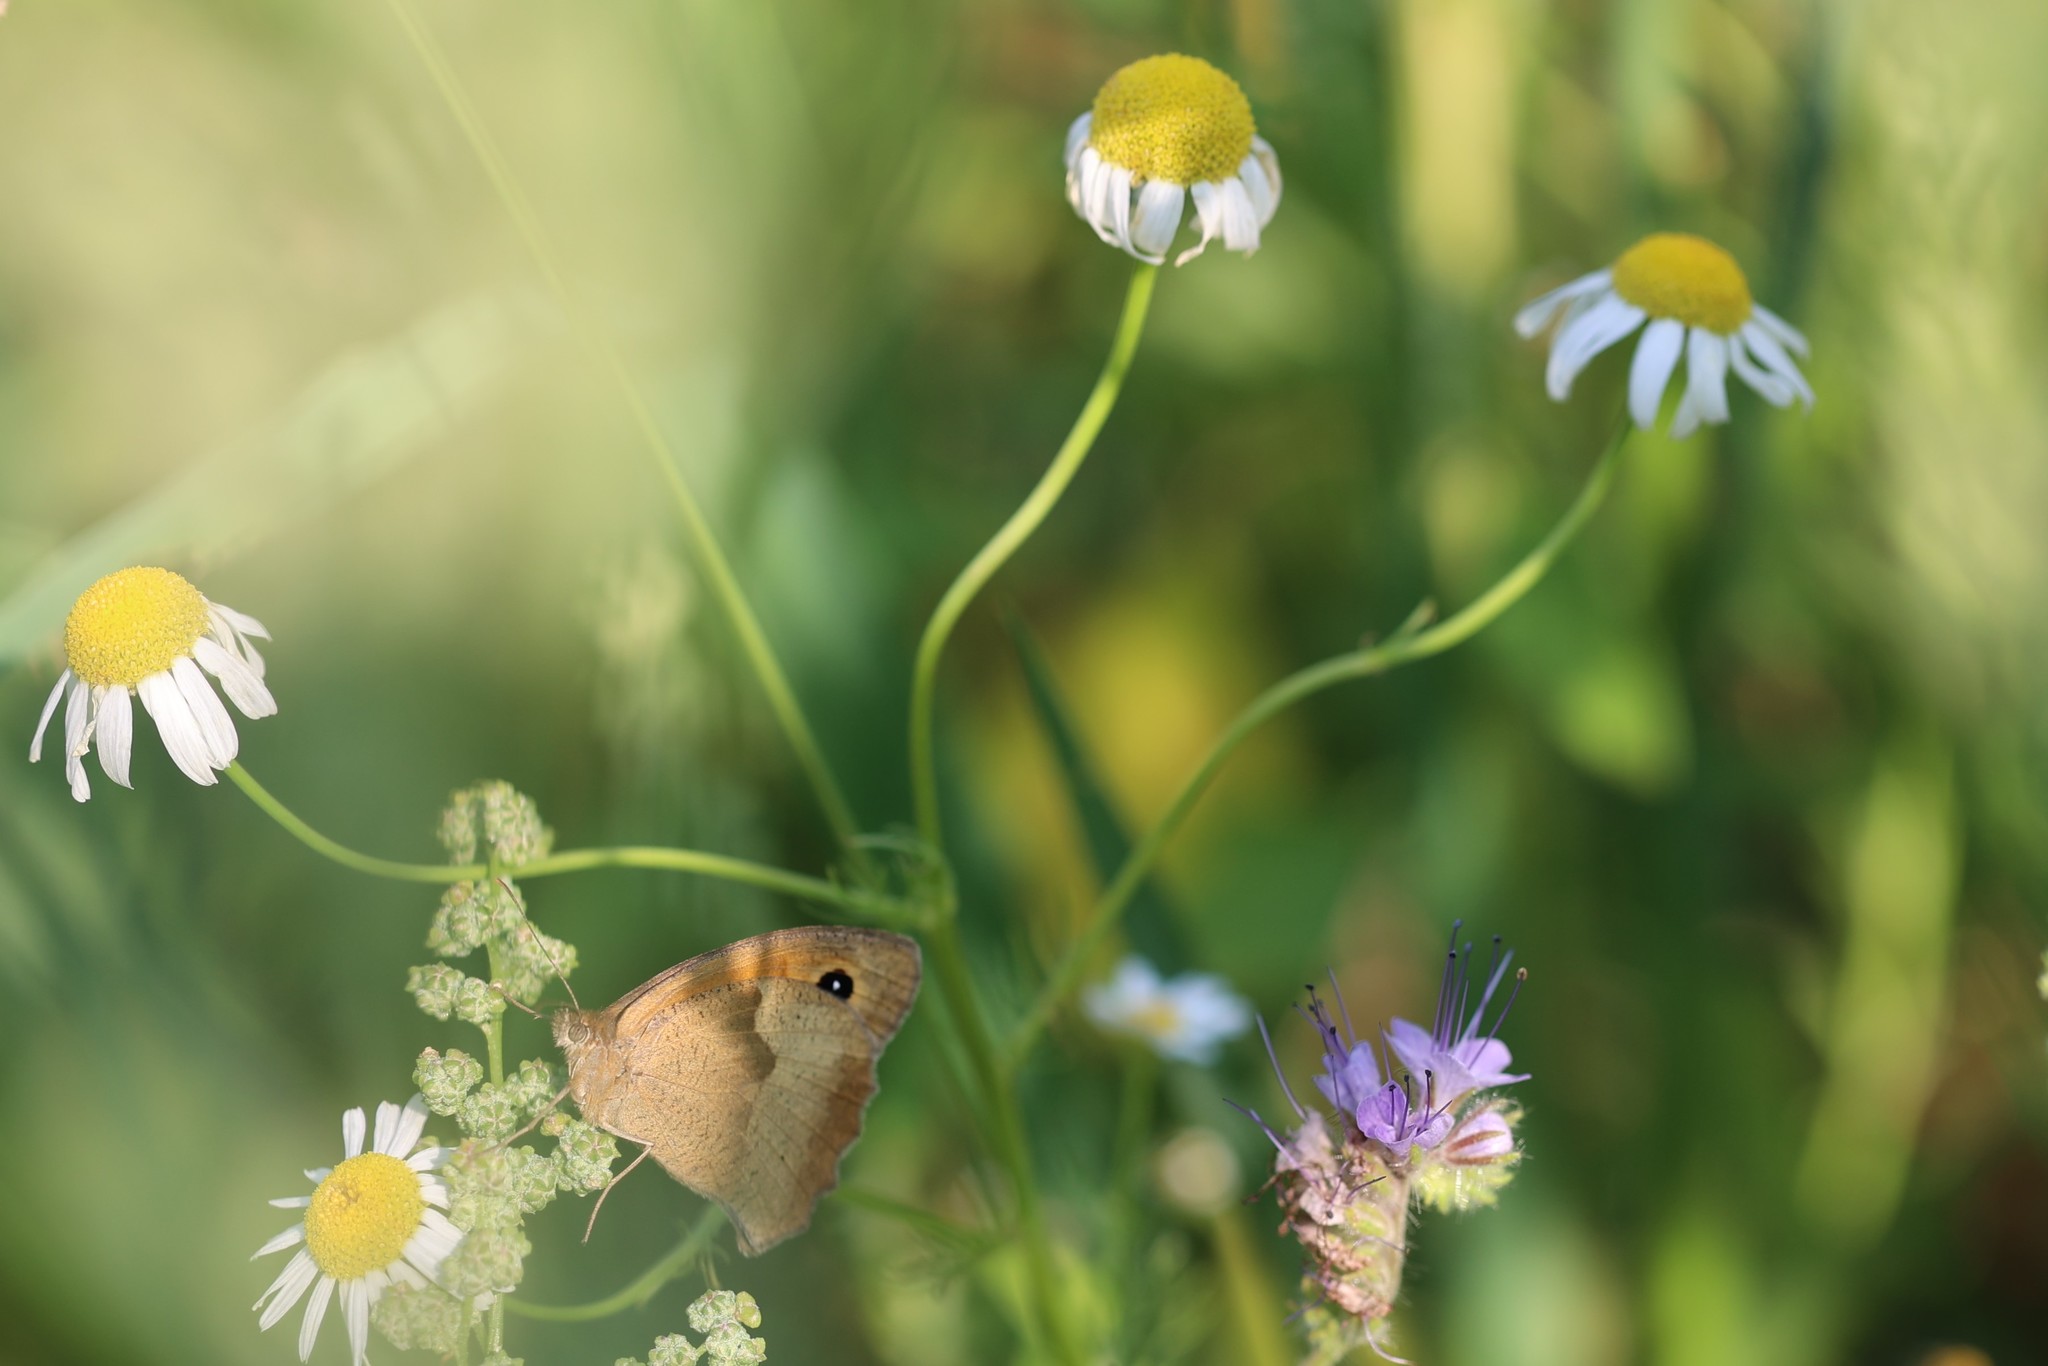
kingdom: Animalia
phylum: Arthropoda
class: Insecta
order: Lepidoptera
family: Nymphalidae
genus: Maniola
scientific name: Maniola jurtina
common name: Meadow brown
